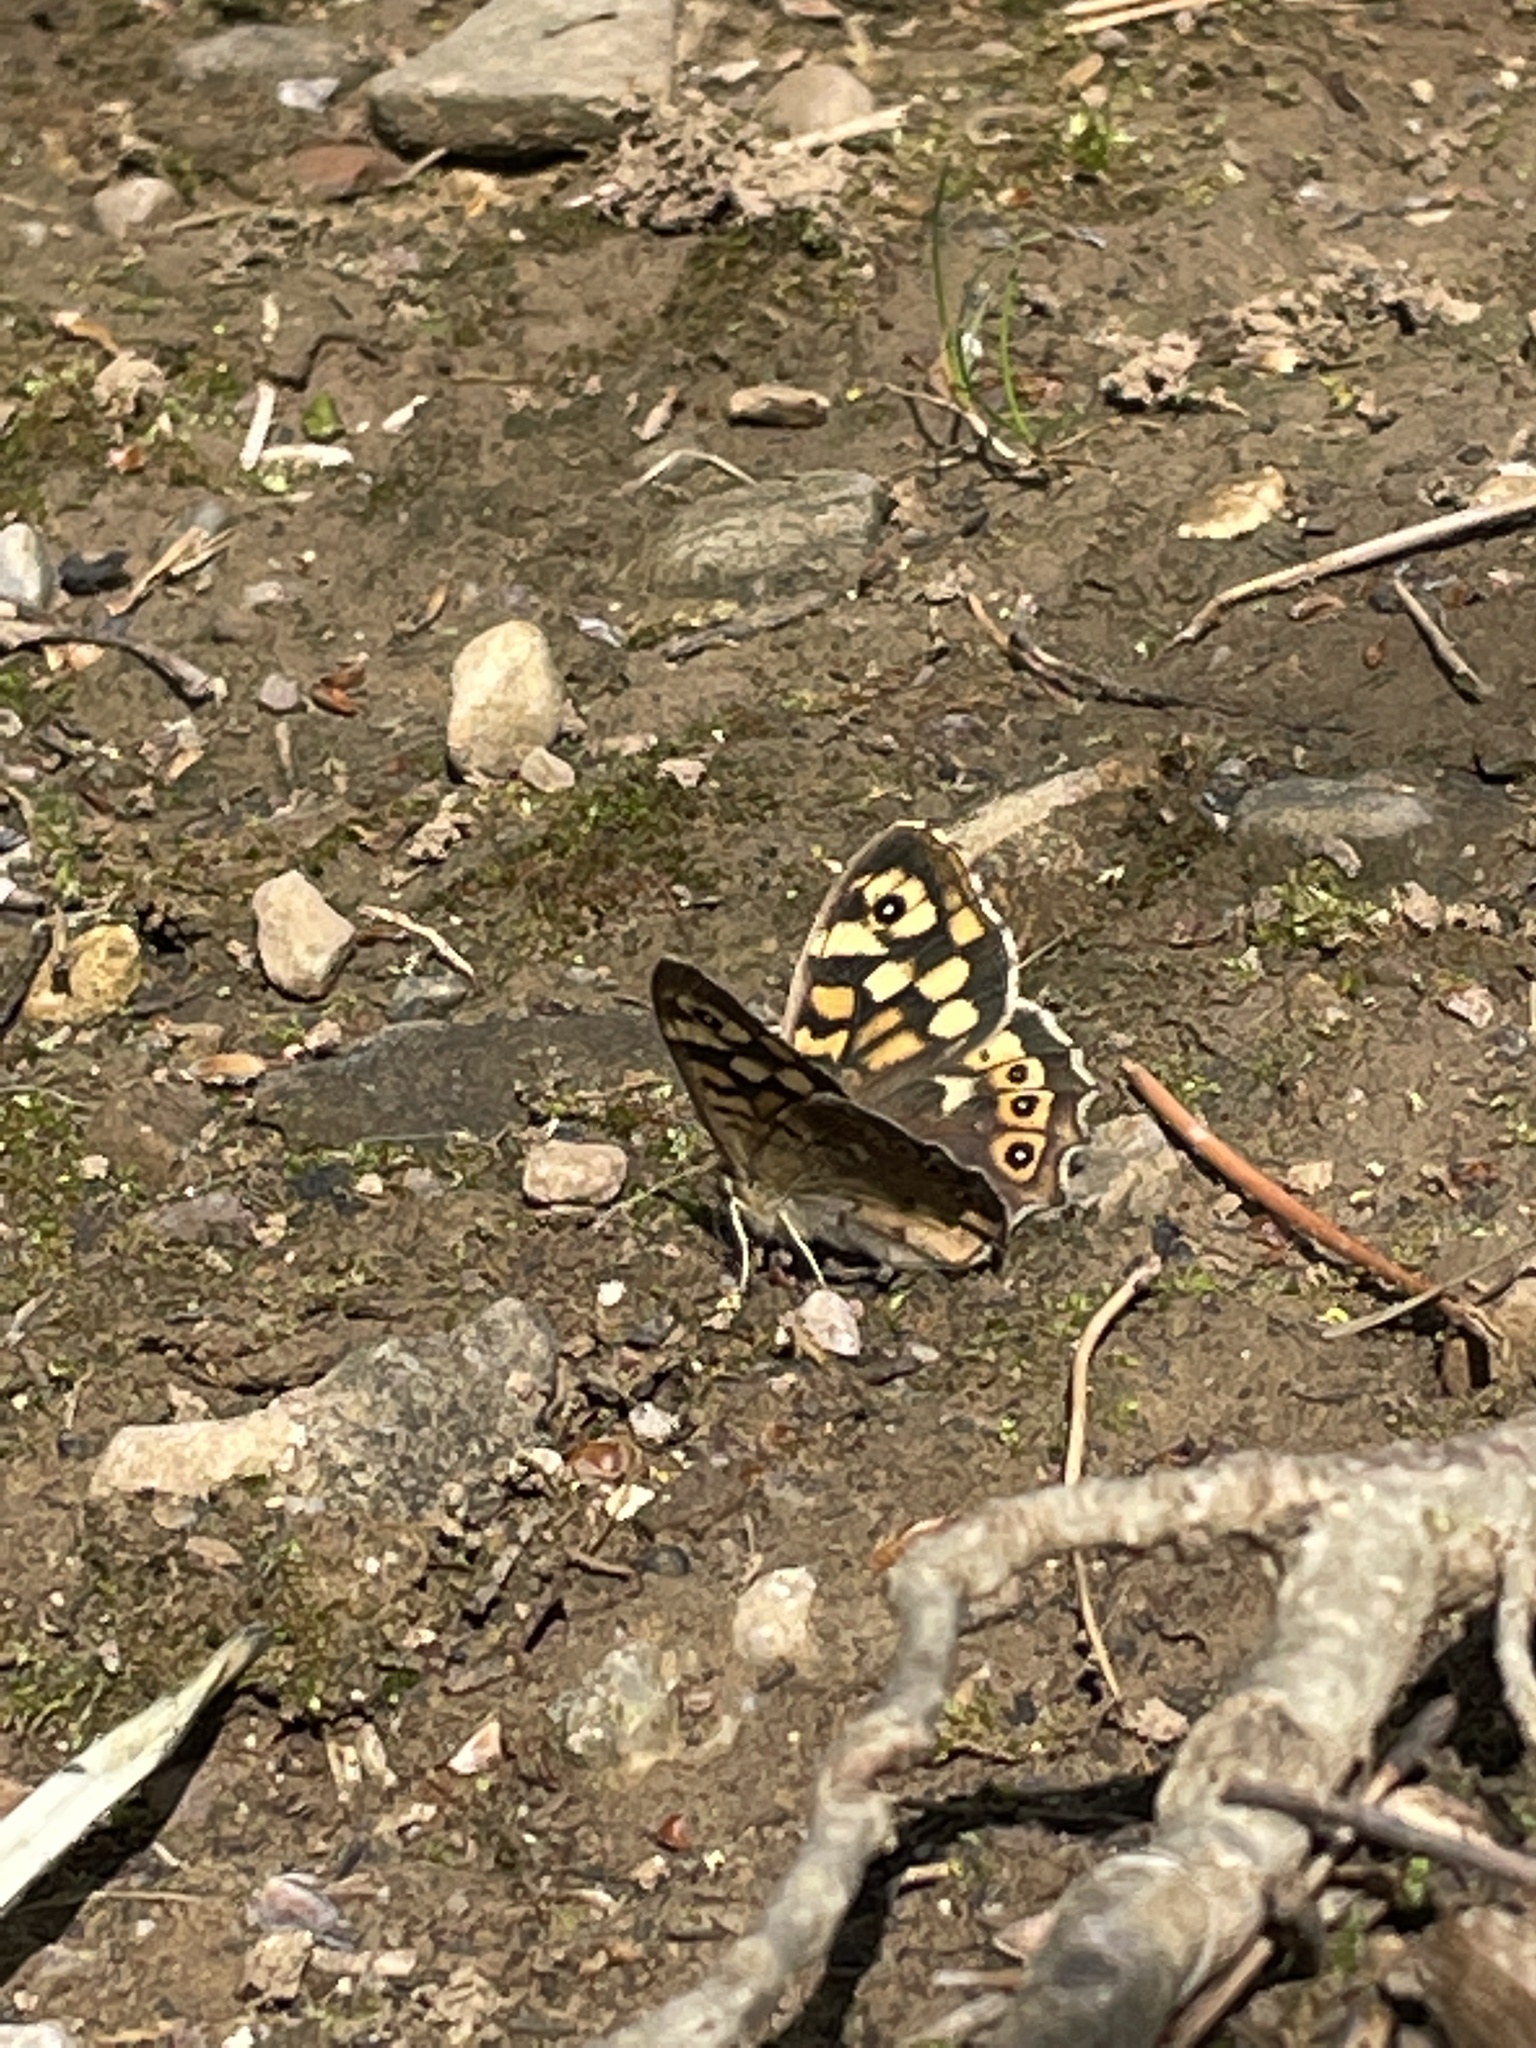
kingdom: Animalia
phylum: Arthropoda
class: Insecta
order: Lepidoptera
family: Nymphalidae
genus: Pararge
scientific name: Pararge aegeria
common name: Speckled wood
